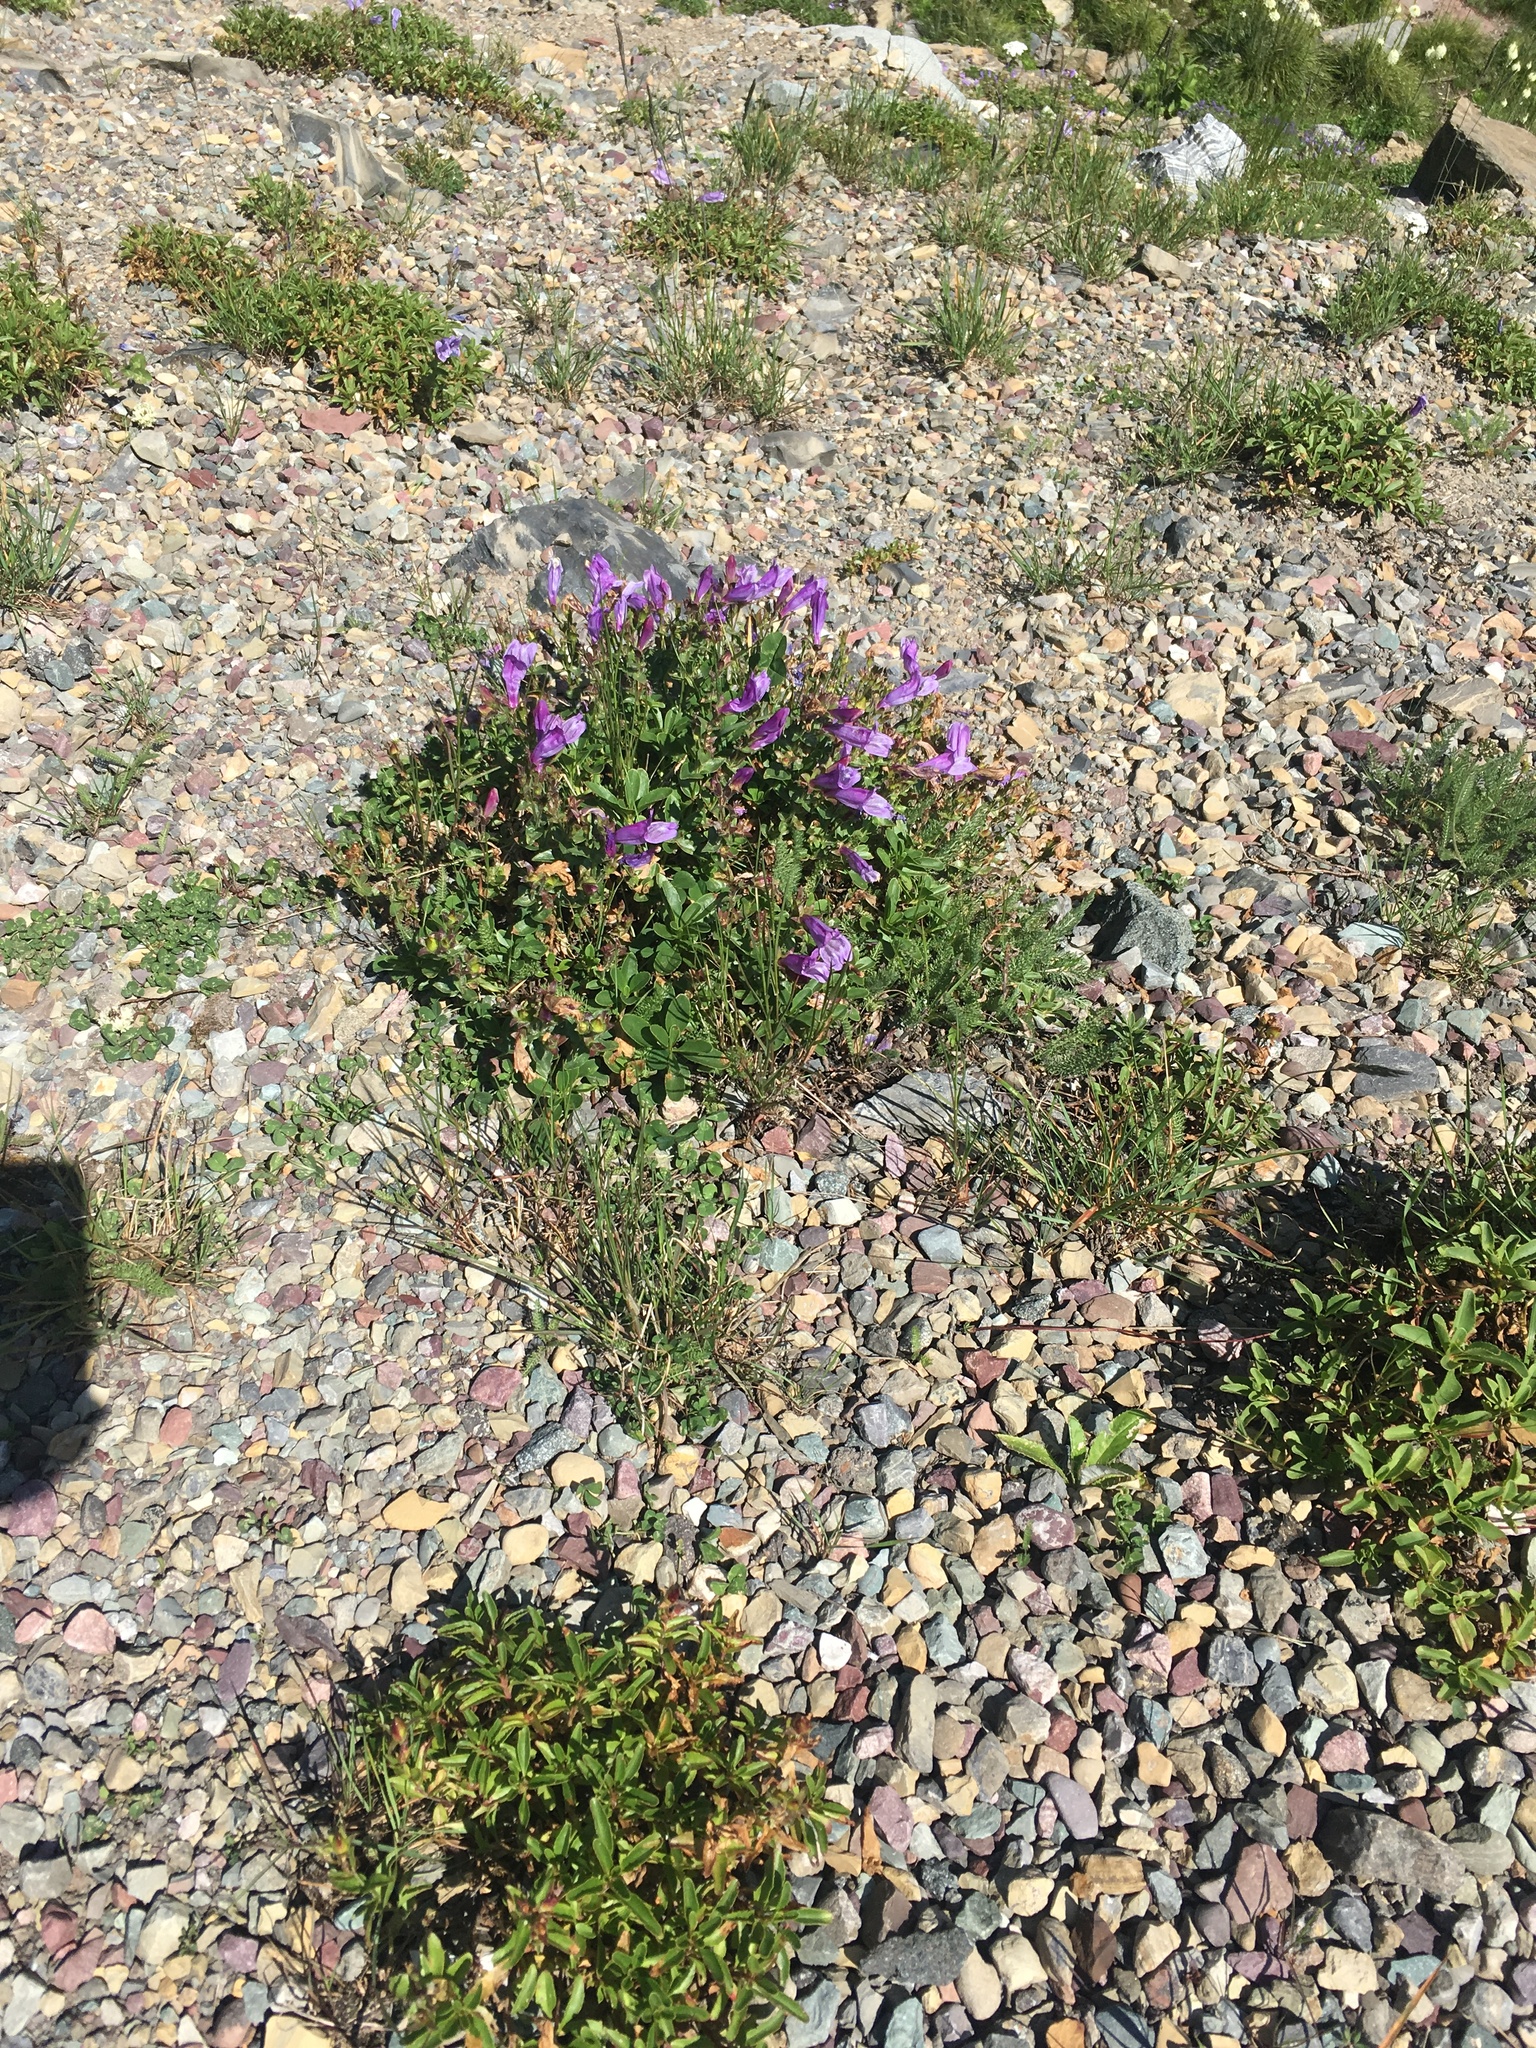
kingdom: Plantae
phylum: Tracheophyta
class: Magnoliopsida
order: Lamiales
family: Plantaginaceae
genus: Penstemon
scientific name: Penstemon ellipticus
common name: Alpine beardtongue
